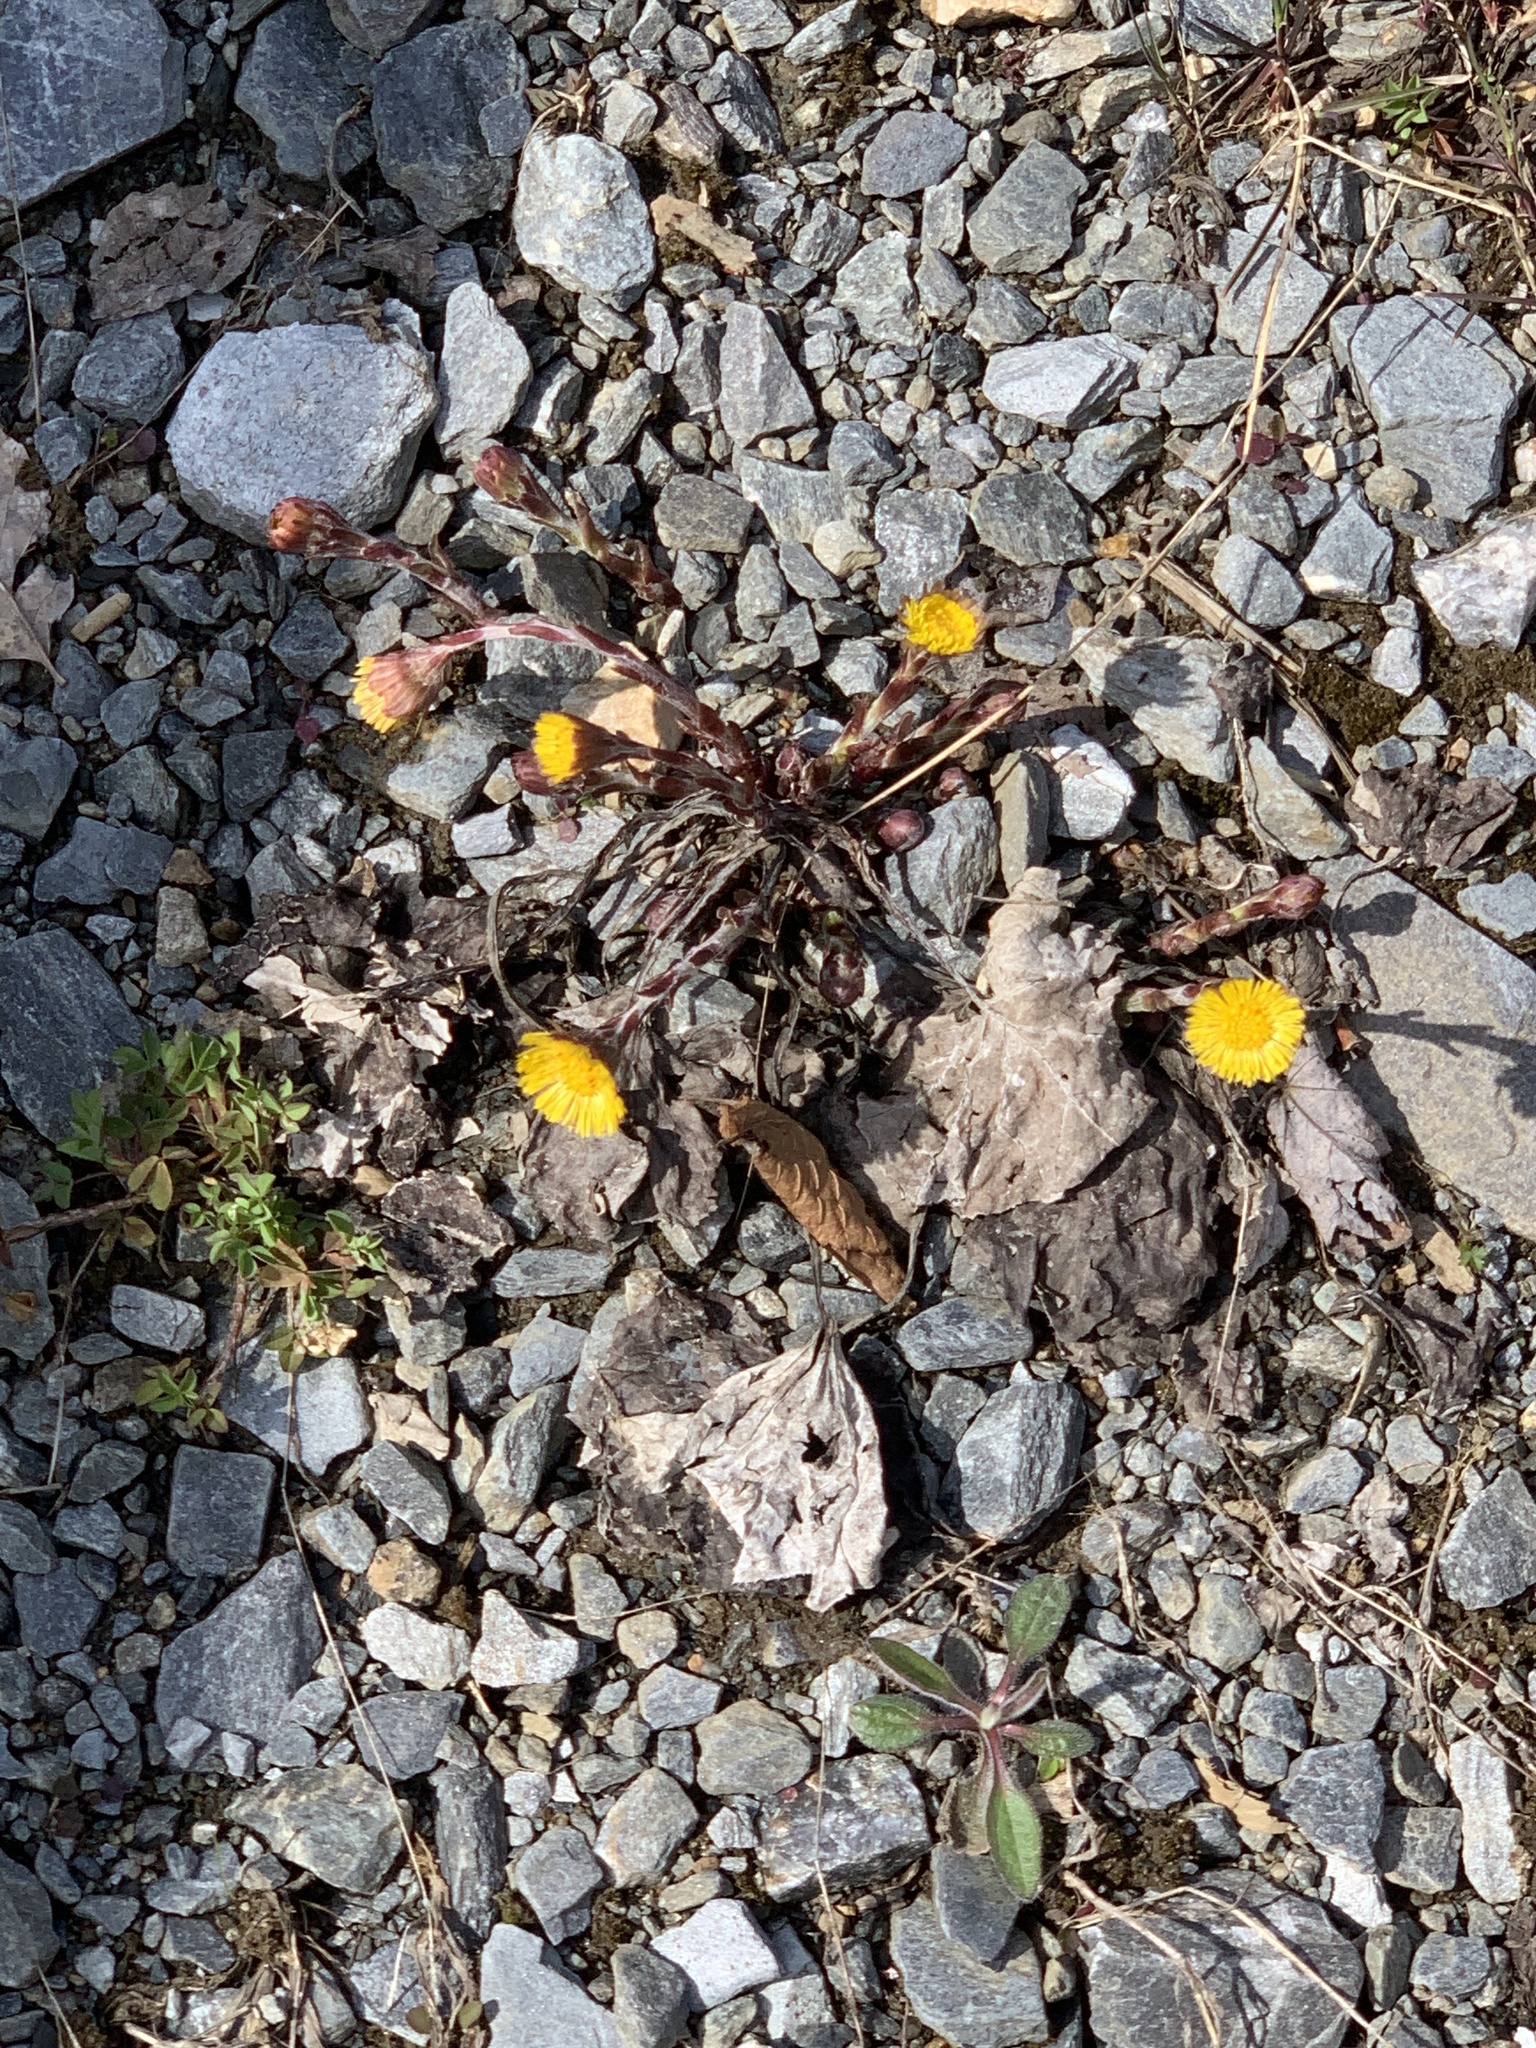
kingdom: Plantae
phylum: Tracheophyta
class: Magnoliopsida
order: Asterales
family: Asteraceae
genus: Tussilago
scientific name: Tussilago farfara
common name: Coltsfoot
